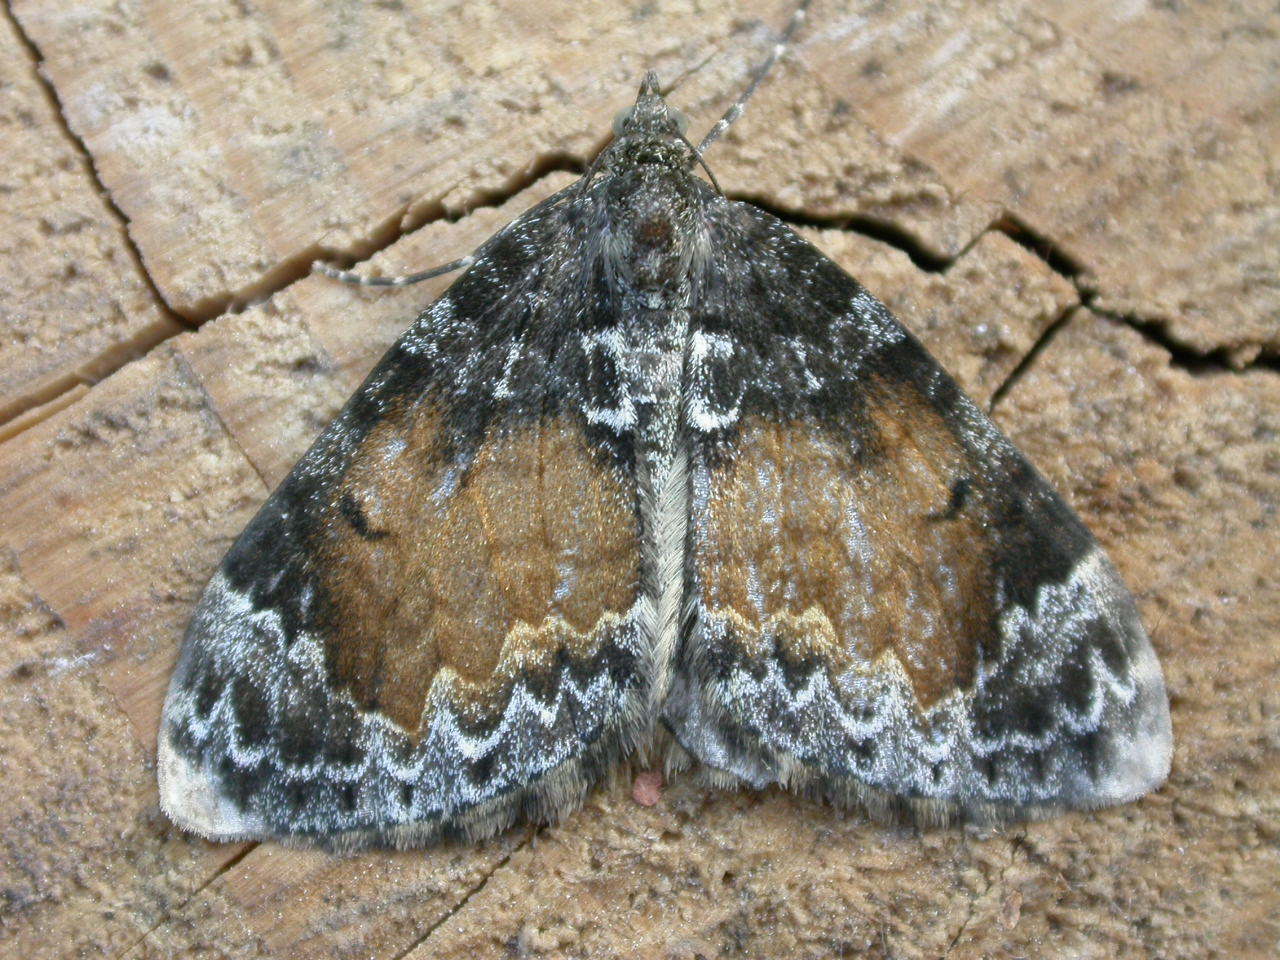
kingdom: Animalia
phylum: Arthropoda
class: Insecta
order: Lepidoptera
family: Geometridae
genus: Dysstroma
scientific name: Dysstroma truncata
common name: Common marbled carpet
